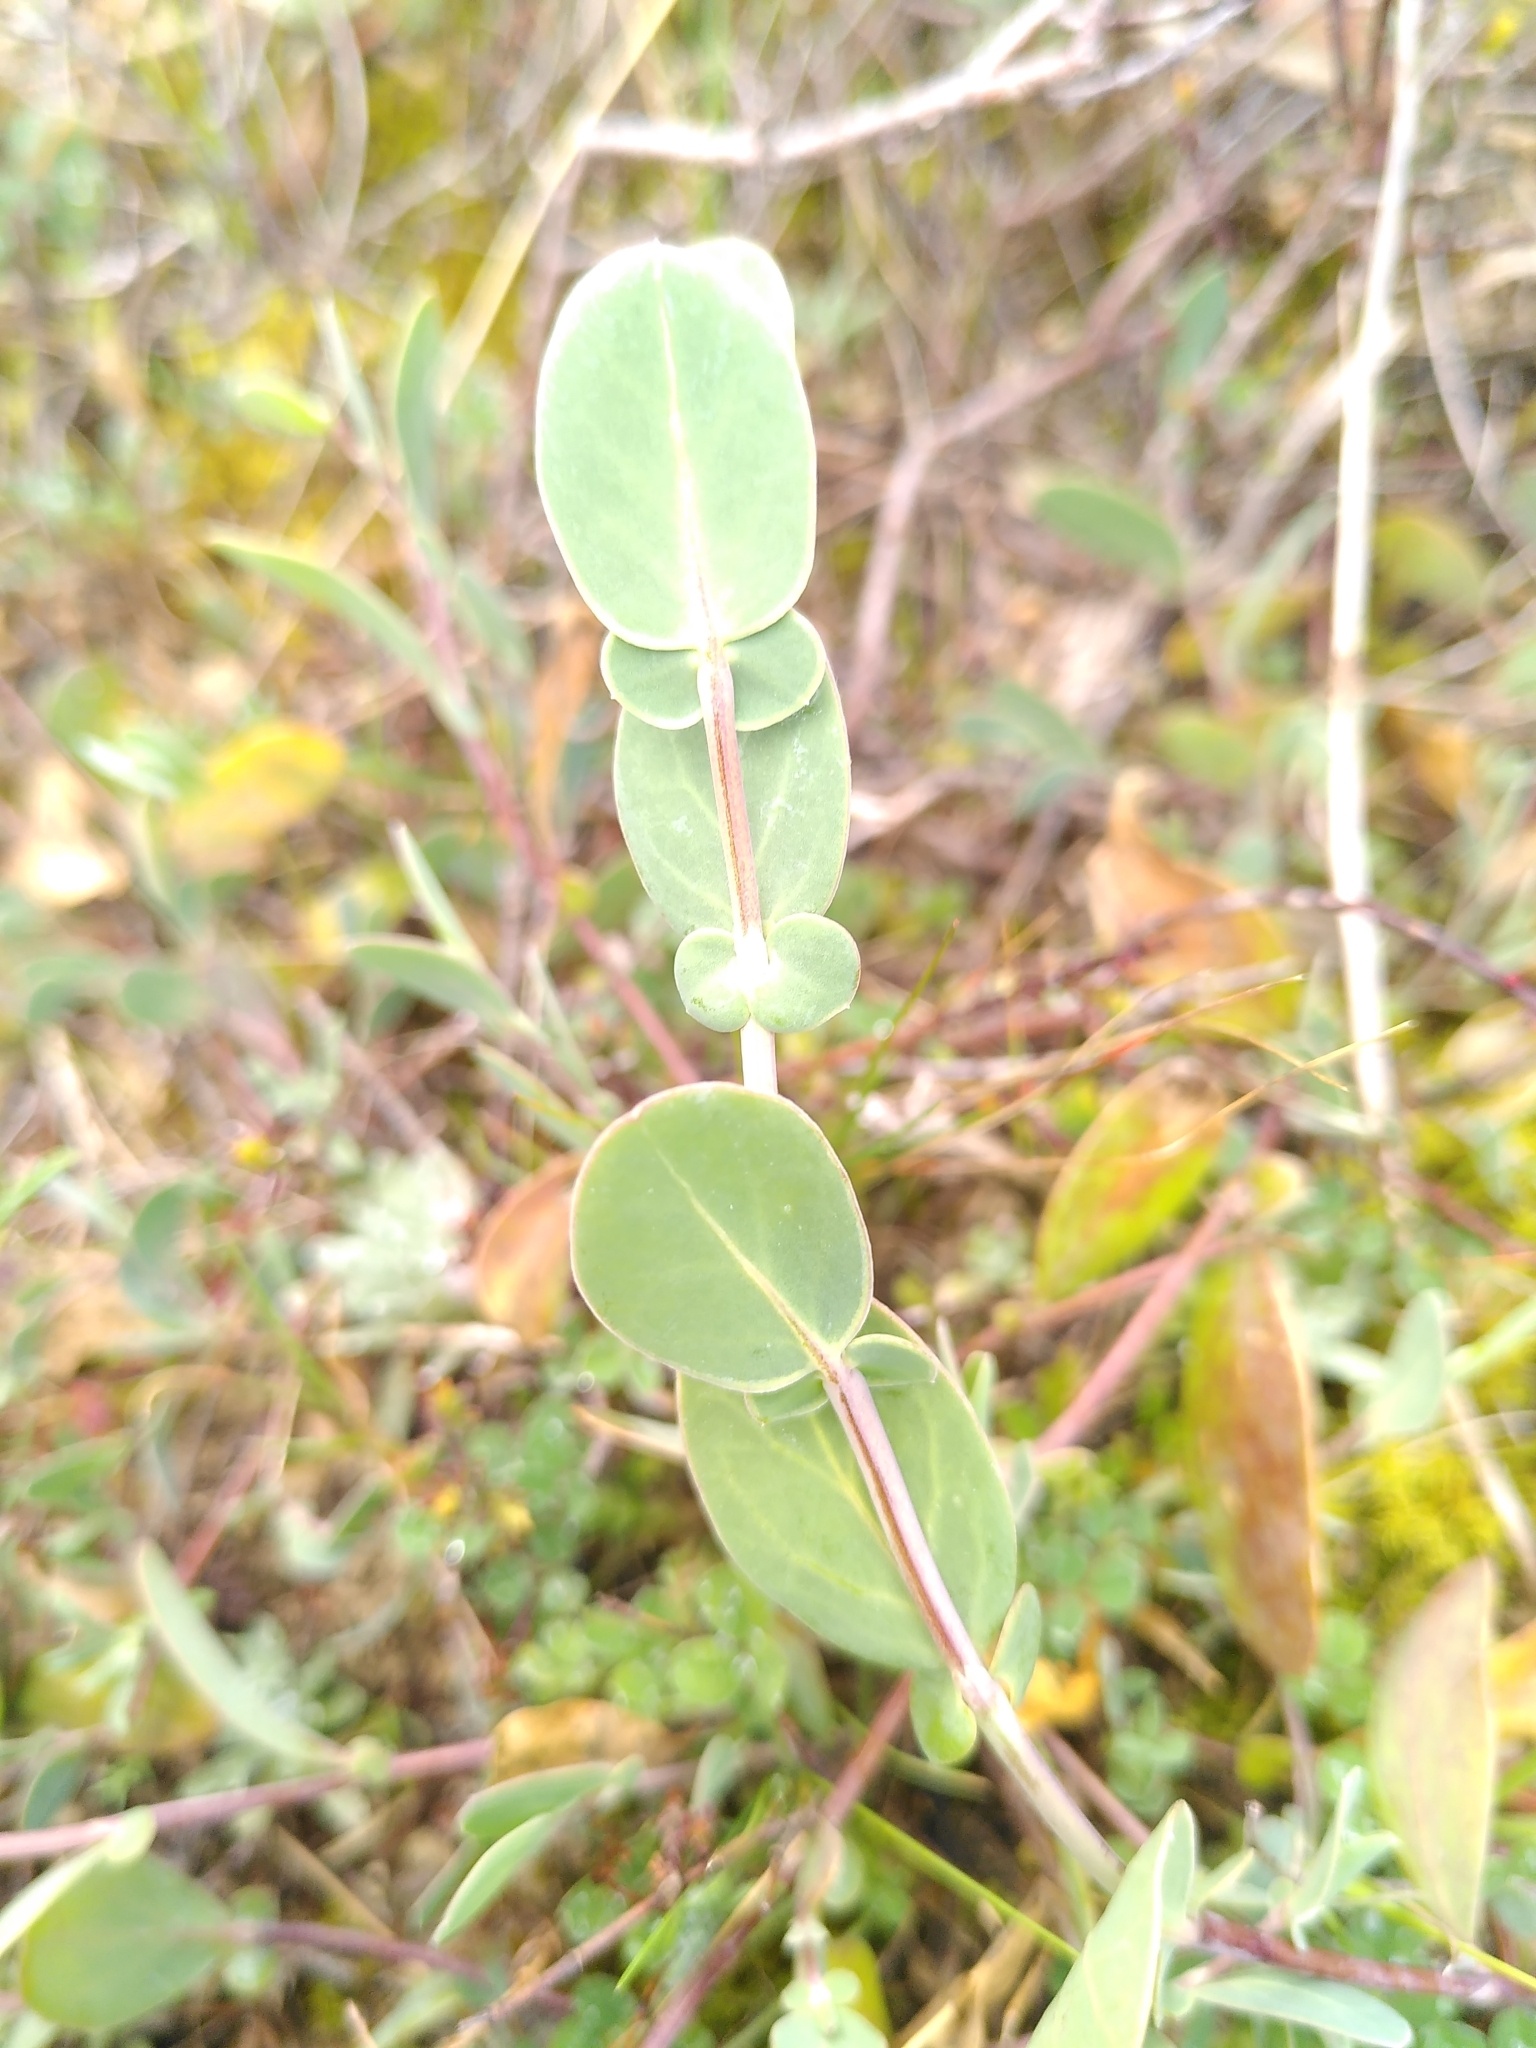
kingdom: Plantae
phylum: Tracheophyta
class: Magnoliopsida
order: Fabales
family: Fabaceae
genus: Coronilla
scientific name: Coronilla scorpioides
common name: Annual scorpion-vetch
